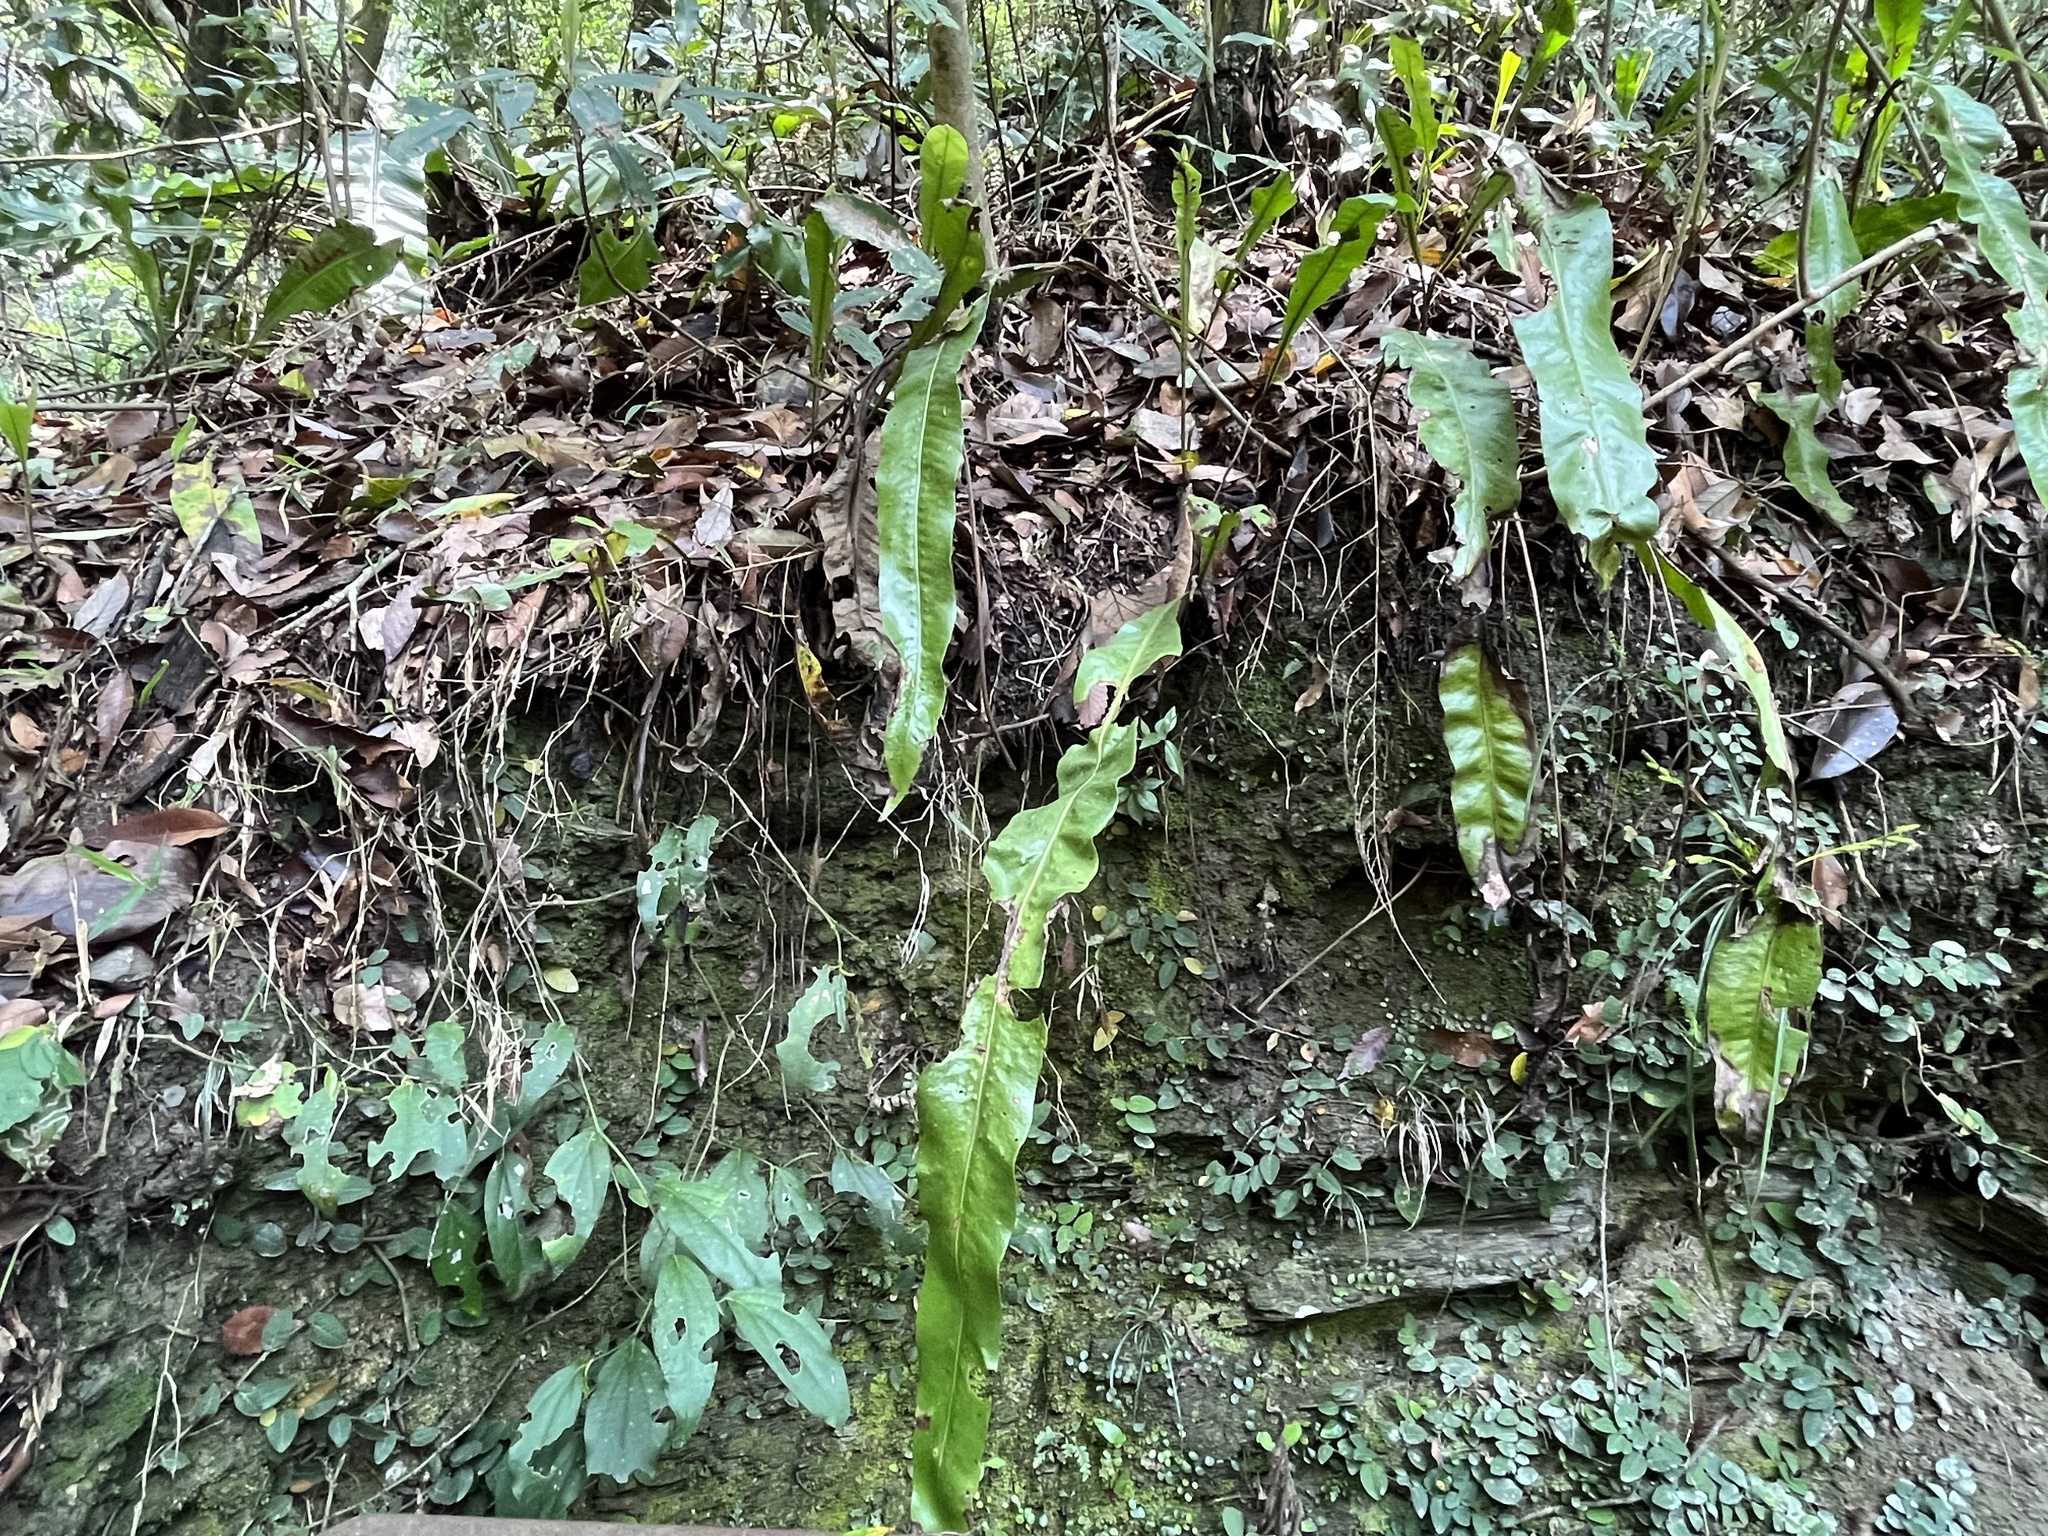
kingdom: Plantae
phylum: Tracheophyta
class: Polypodiopsida
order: Polypodiales
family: Polypodiaceae
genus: Lepisorus
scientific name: Lepisorus fortuni
